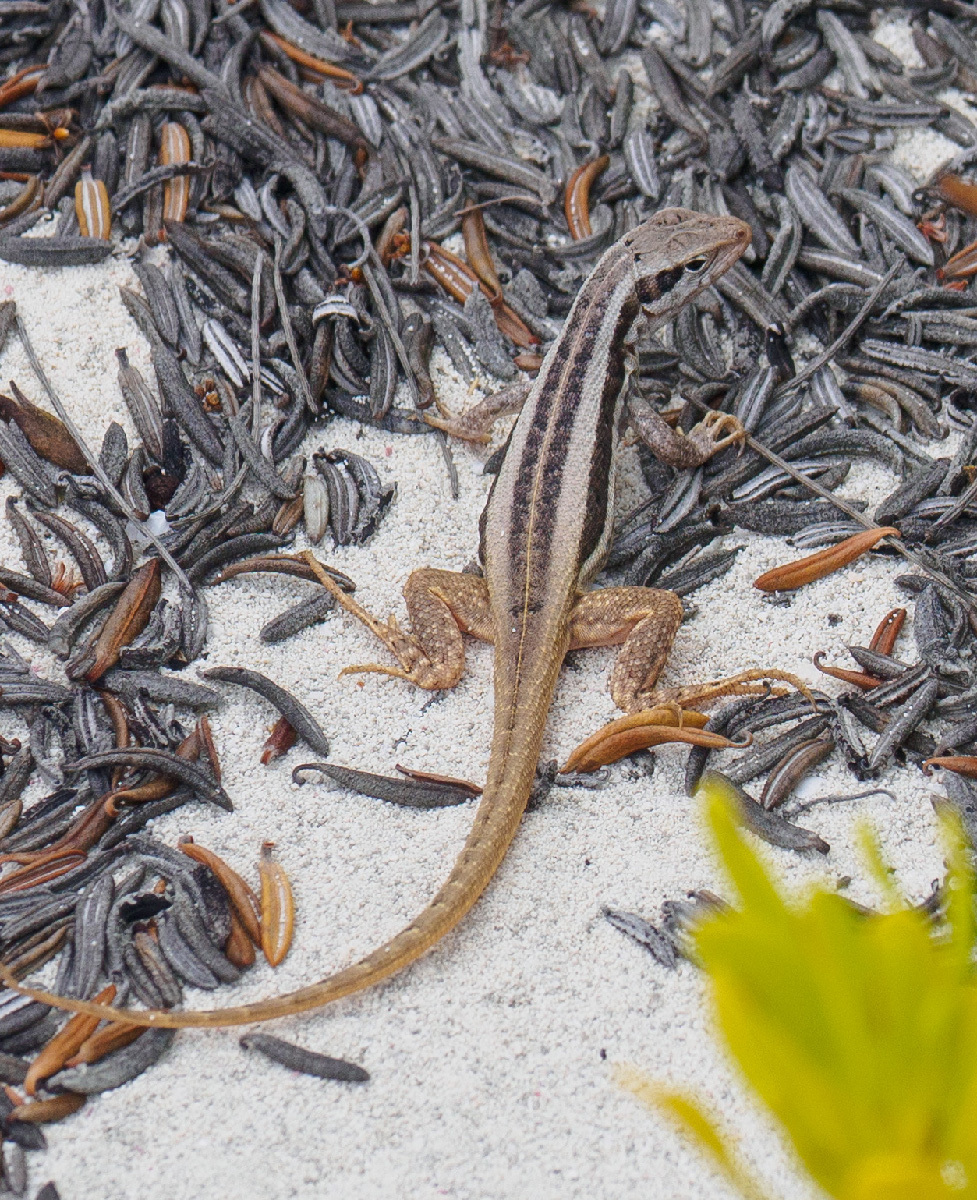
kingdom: Animalia
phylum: Chordata
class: Squamata
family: Leiocephalidae
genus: Leiocephalus
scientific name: Leiocephalus loxogrammus
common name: Rum cay curlytail lizard
